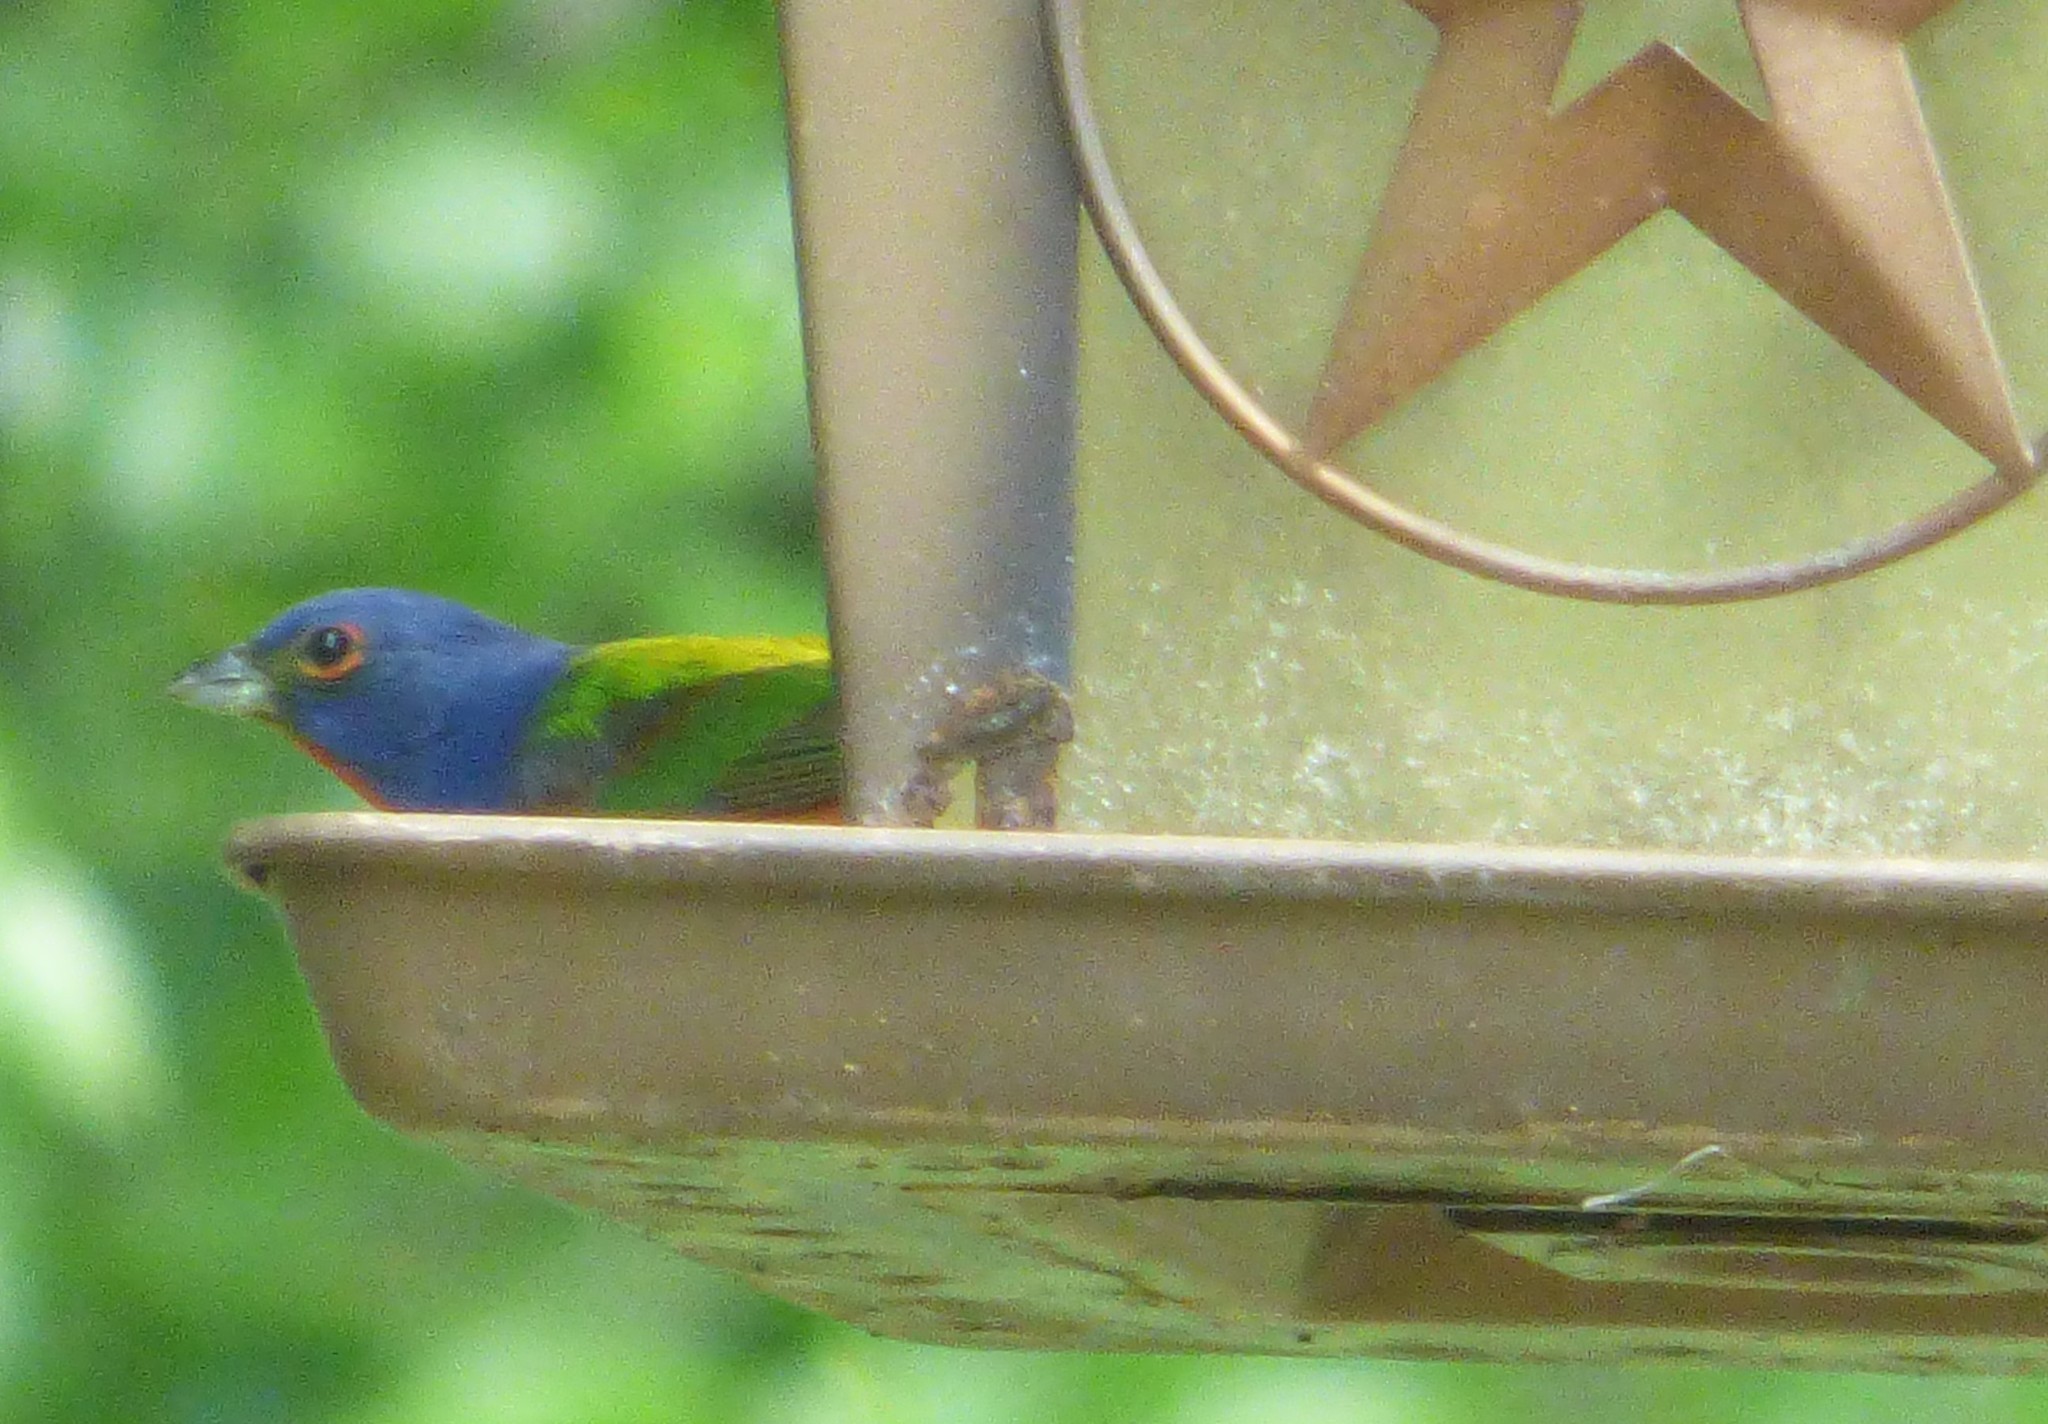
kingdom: Animalia
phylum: Chordata
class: Aves
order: Passeriformes
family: Cardinalidae
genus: Passerina
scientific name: Passerina ciris
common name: Painted bunting
